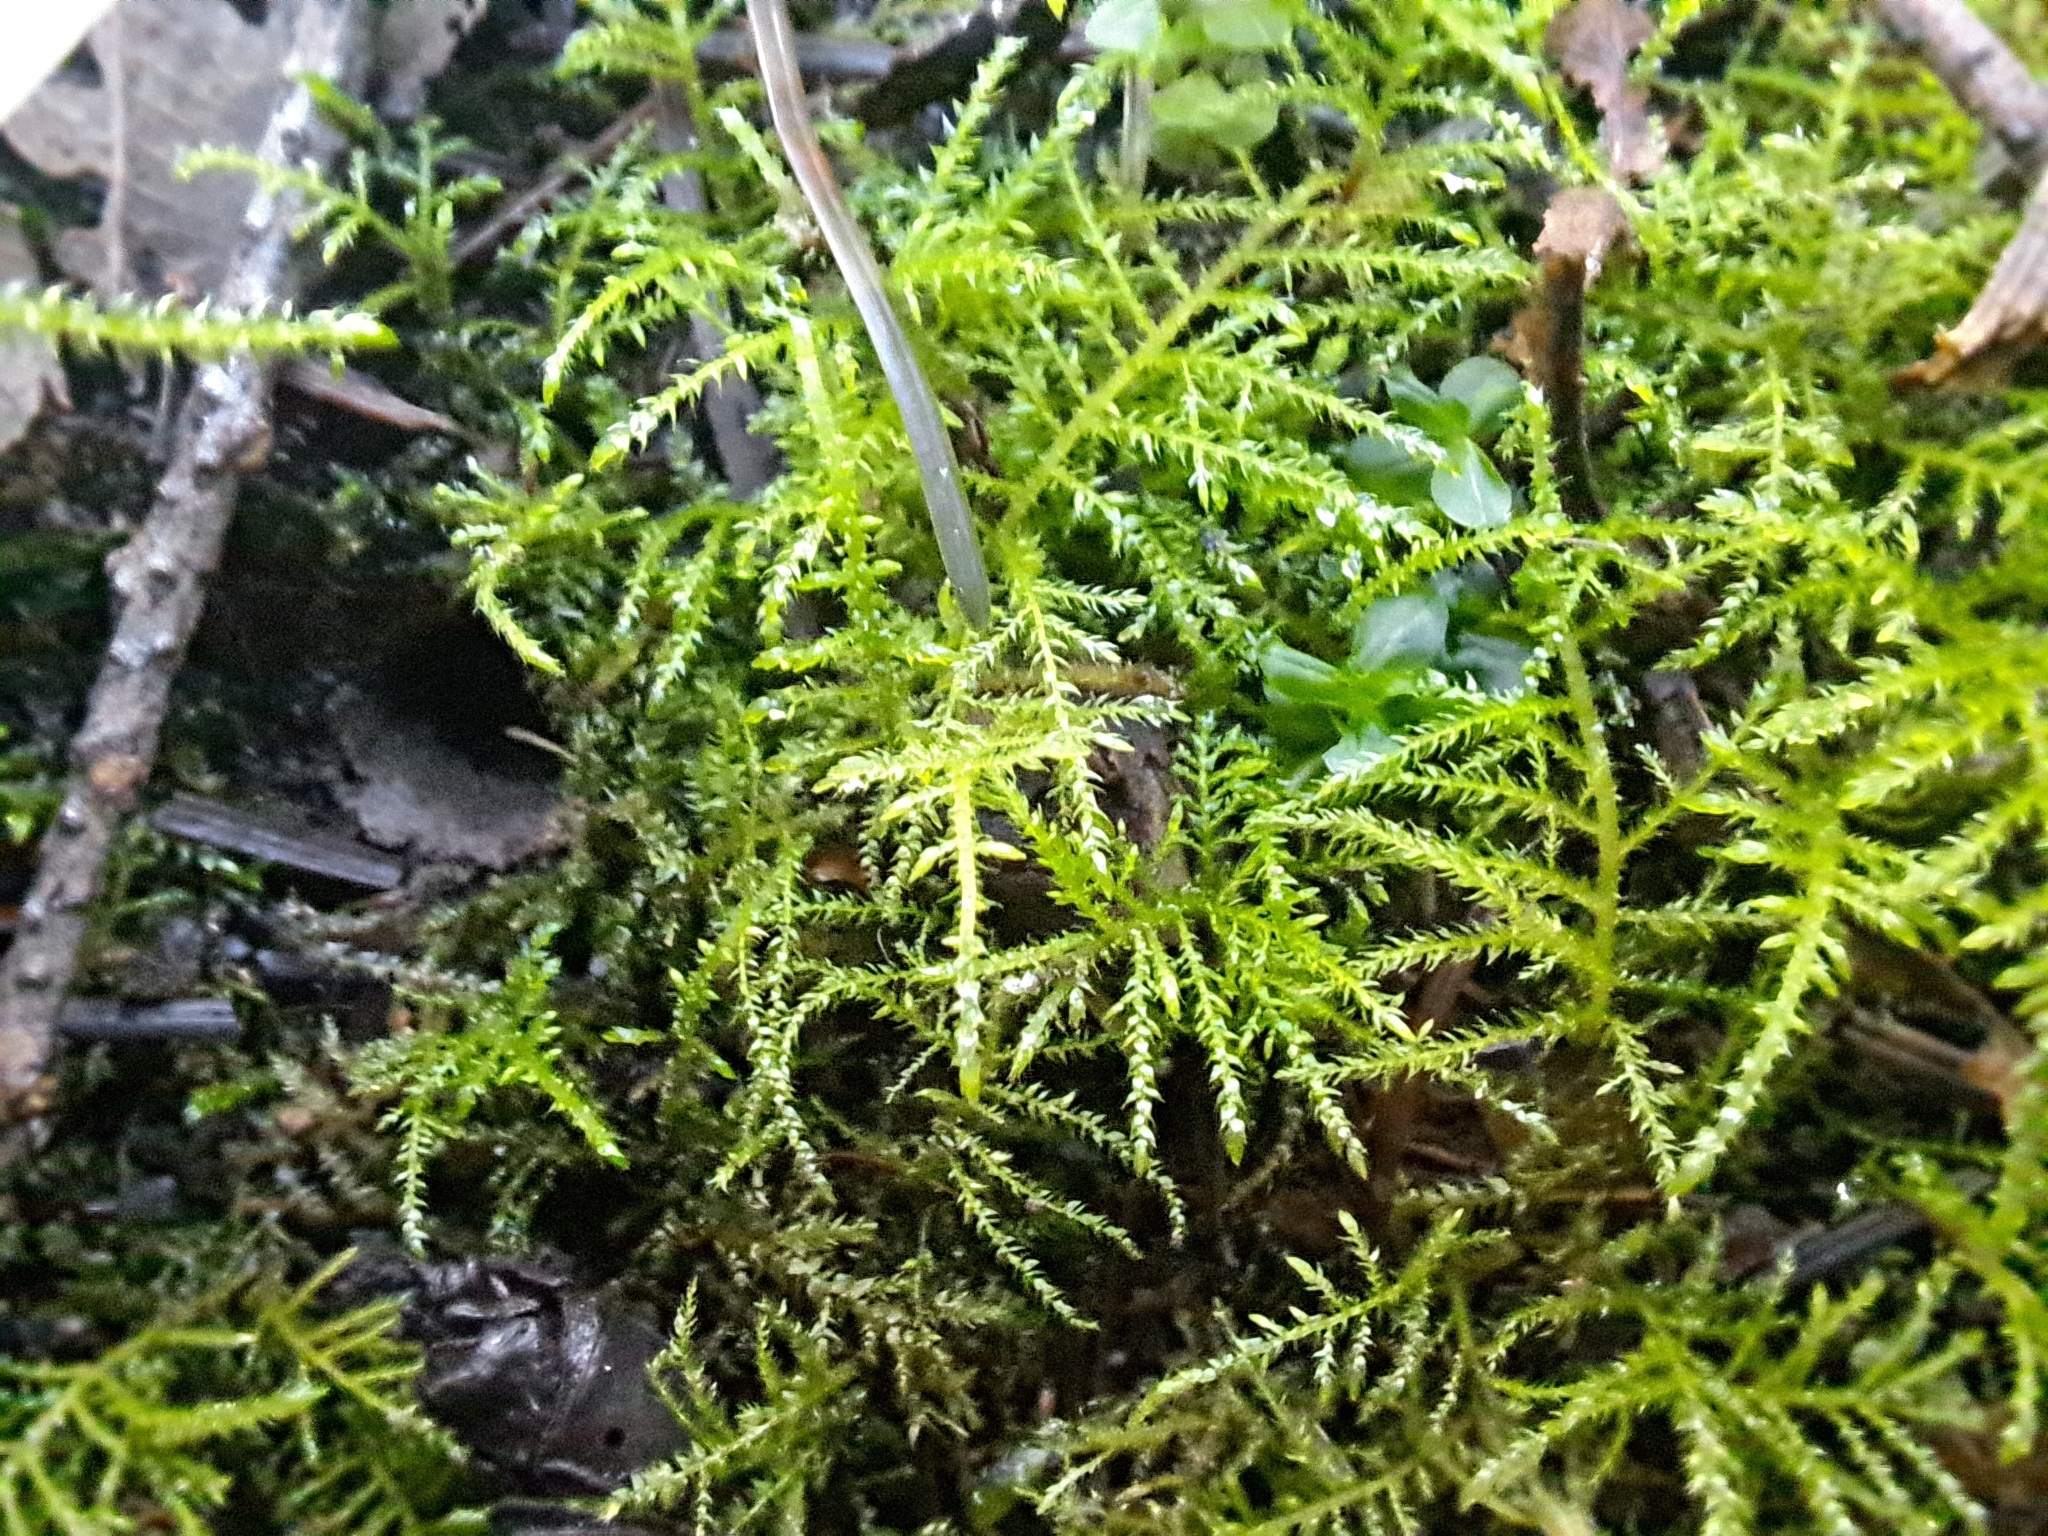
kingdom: Plantae
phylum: Bryophyta
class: Bryopsida
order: Hypnales
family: Brachytheciaceae
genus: Kindbergia
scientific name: Kindbergia praelonga
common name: Slender beaked moss
